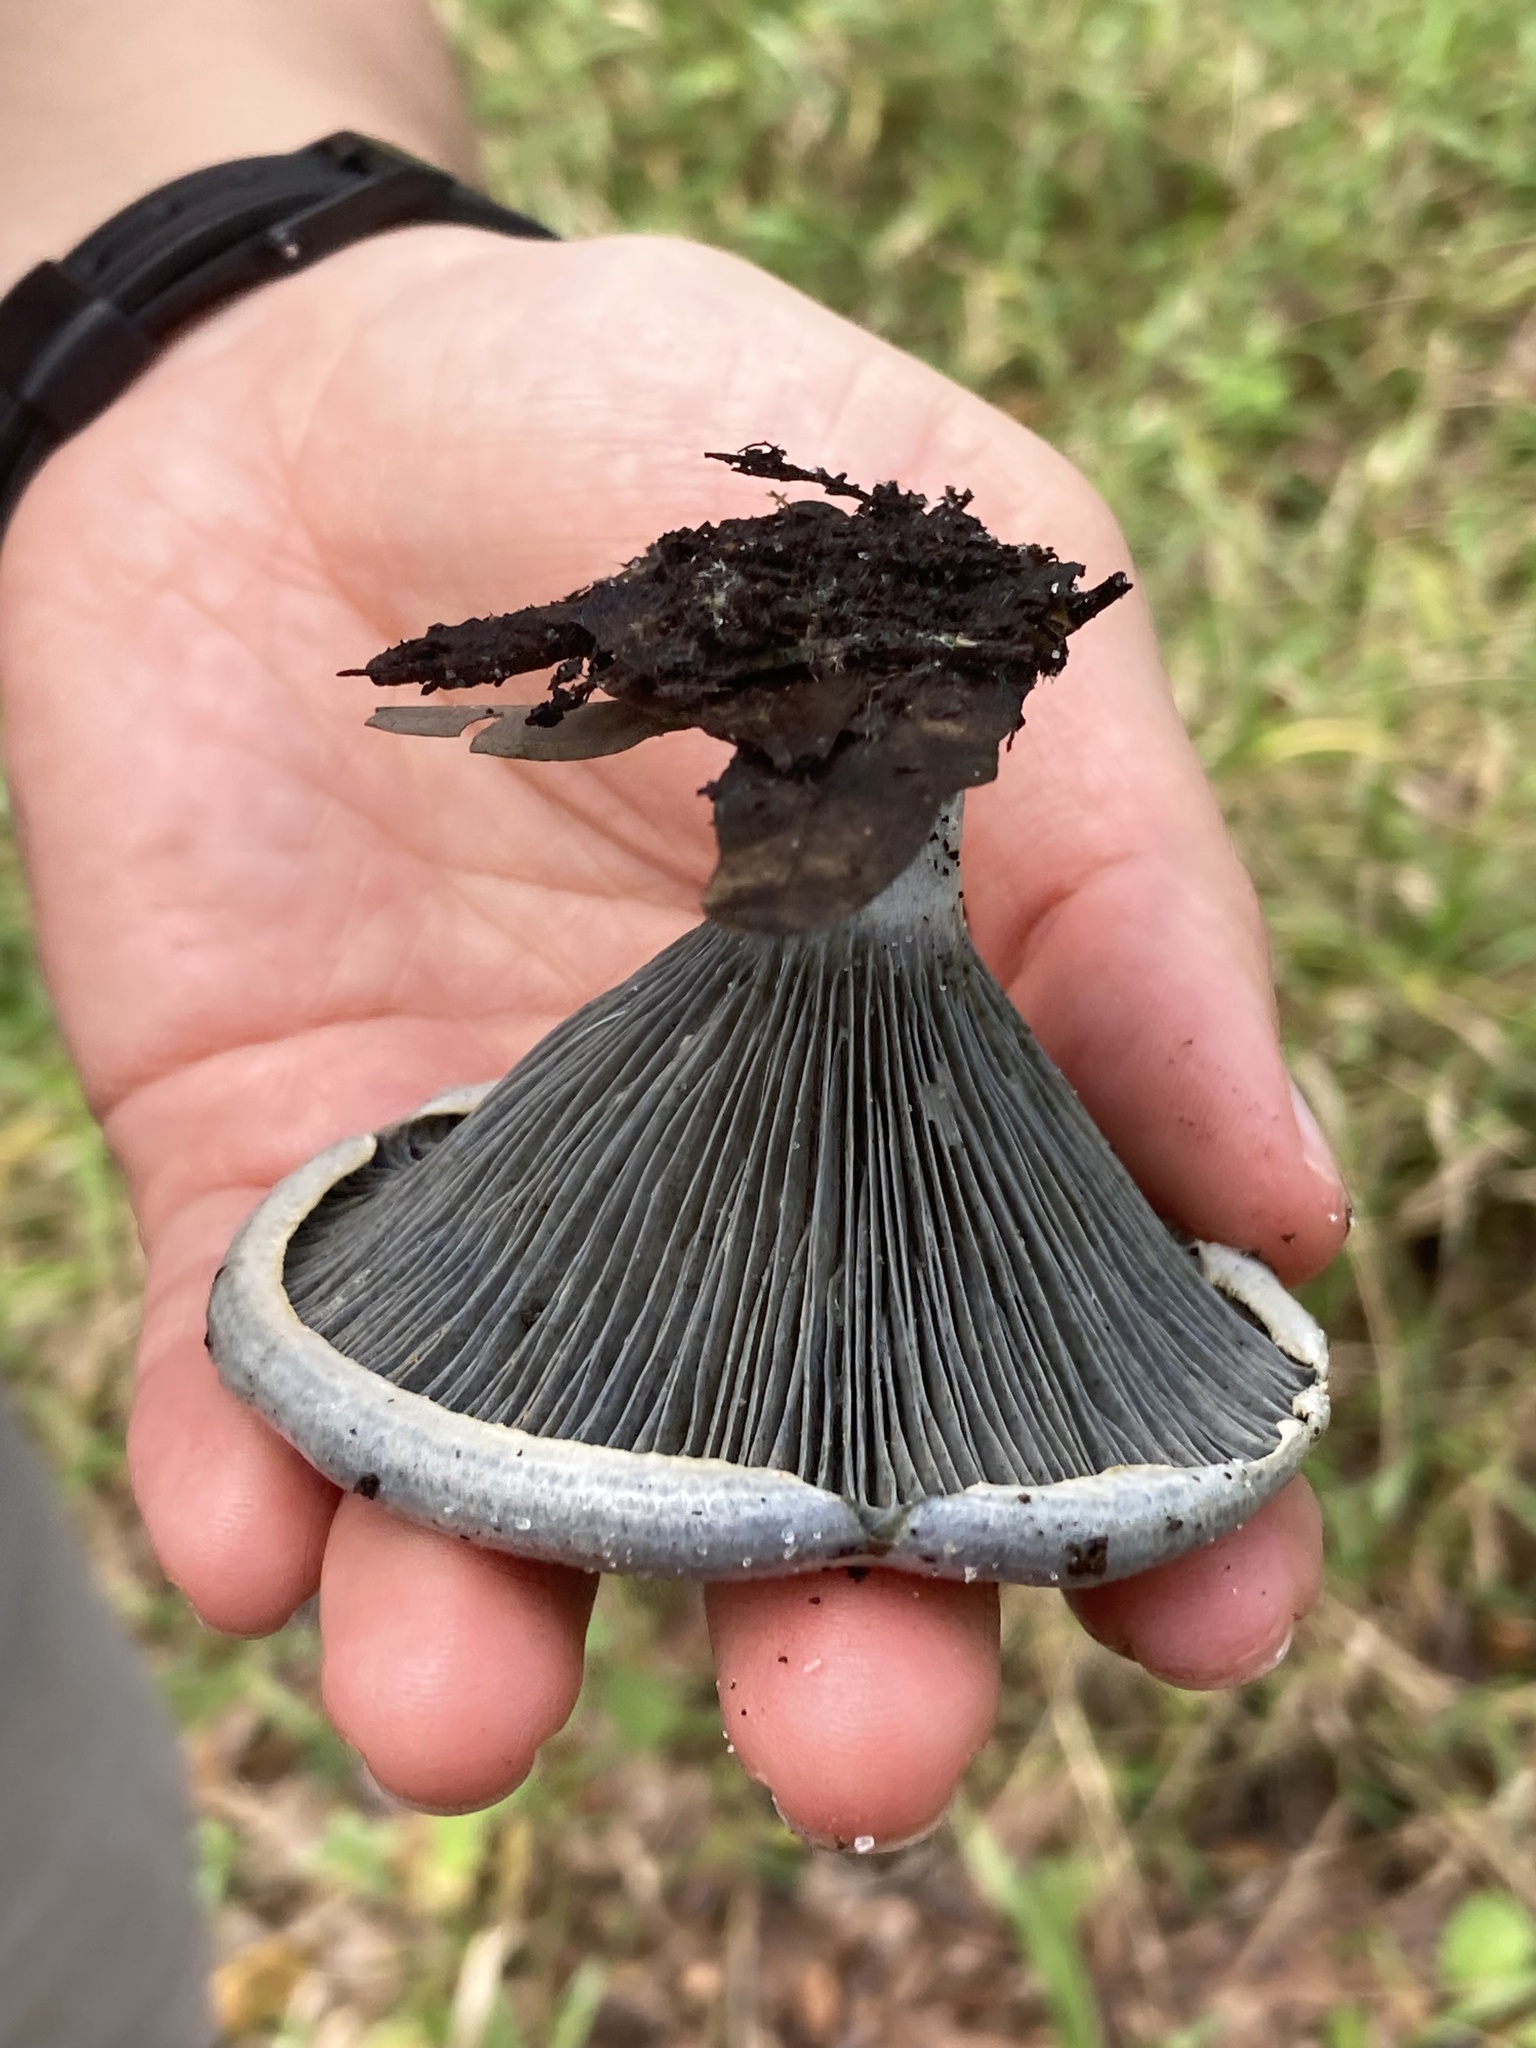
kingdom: Fungi
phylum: Basidiomycota
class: Agaricomycetes
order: Russulales
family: Russulaceae
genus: Lactarius
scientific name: Lactarius indigo
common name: Indigo milk cap
